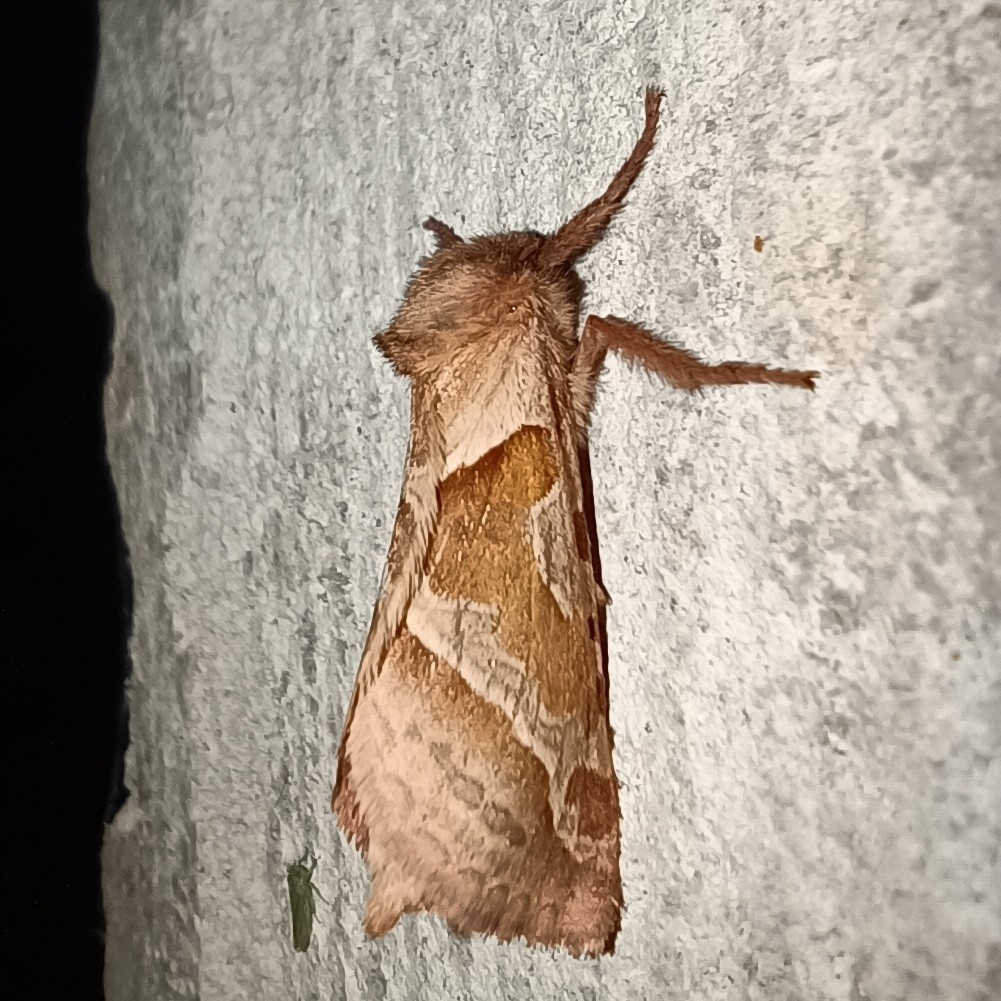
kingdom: Animalia
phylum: Arthropoda
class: Insecta
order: Lepidoptera
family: Hepialidae
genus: Triodia
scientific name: Triodia sylvina
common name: Orange swift
